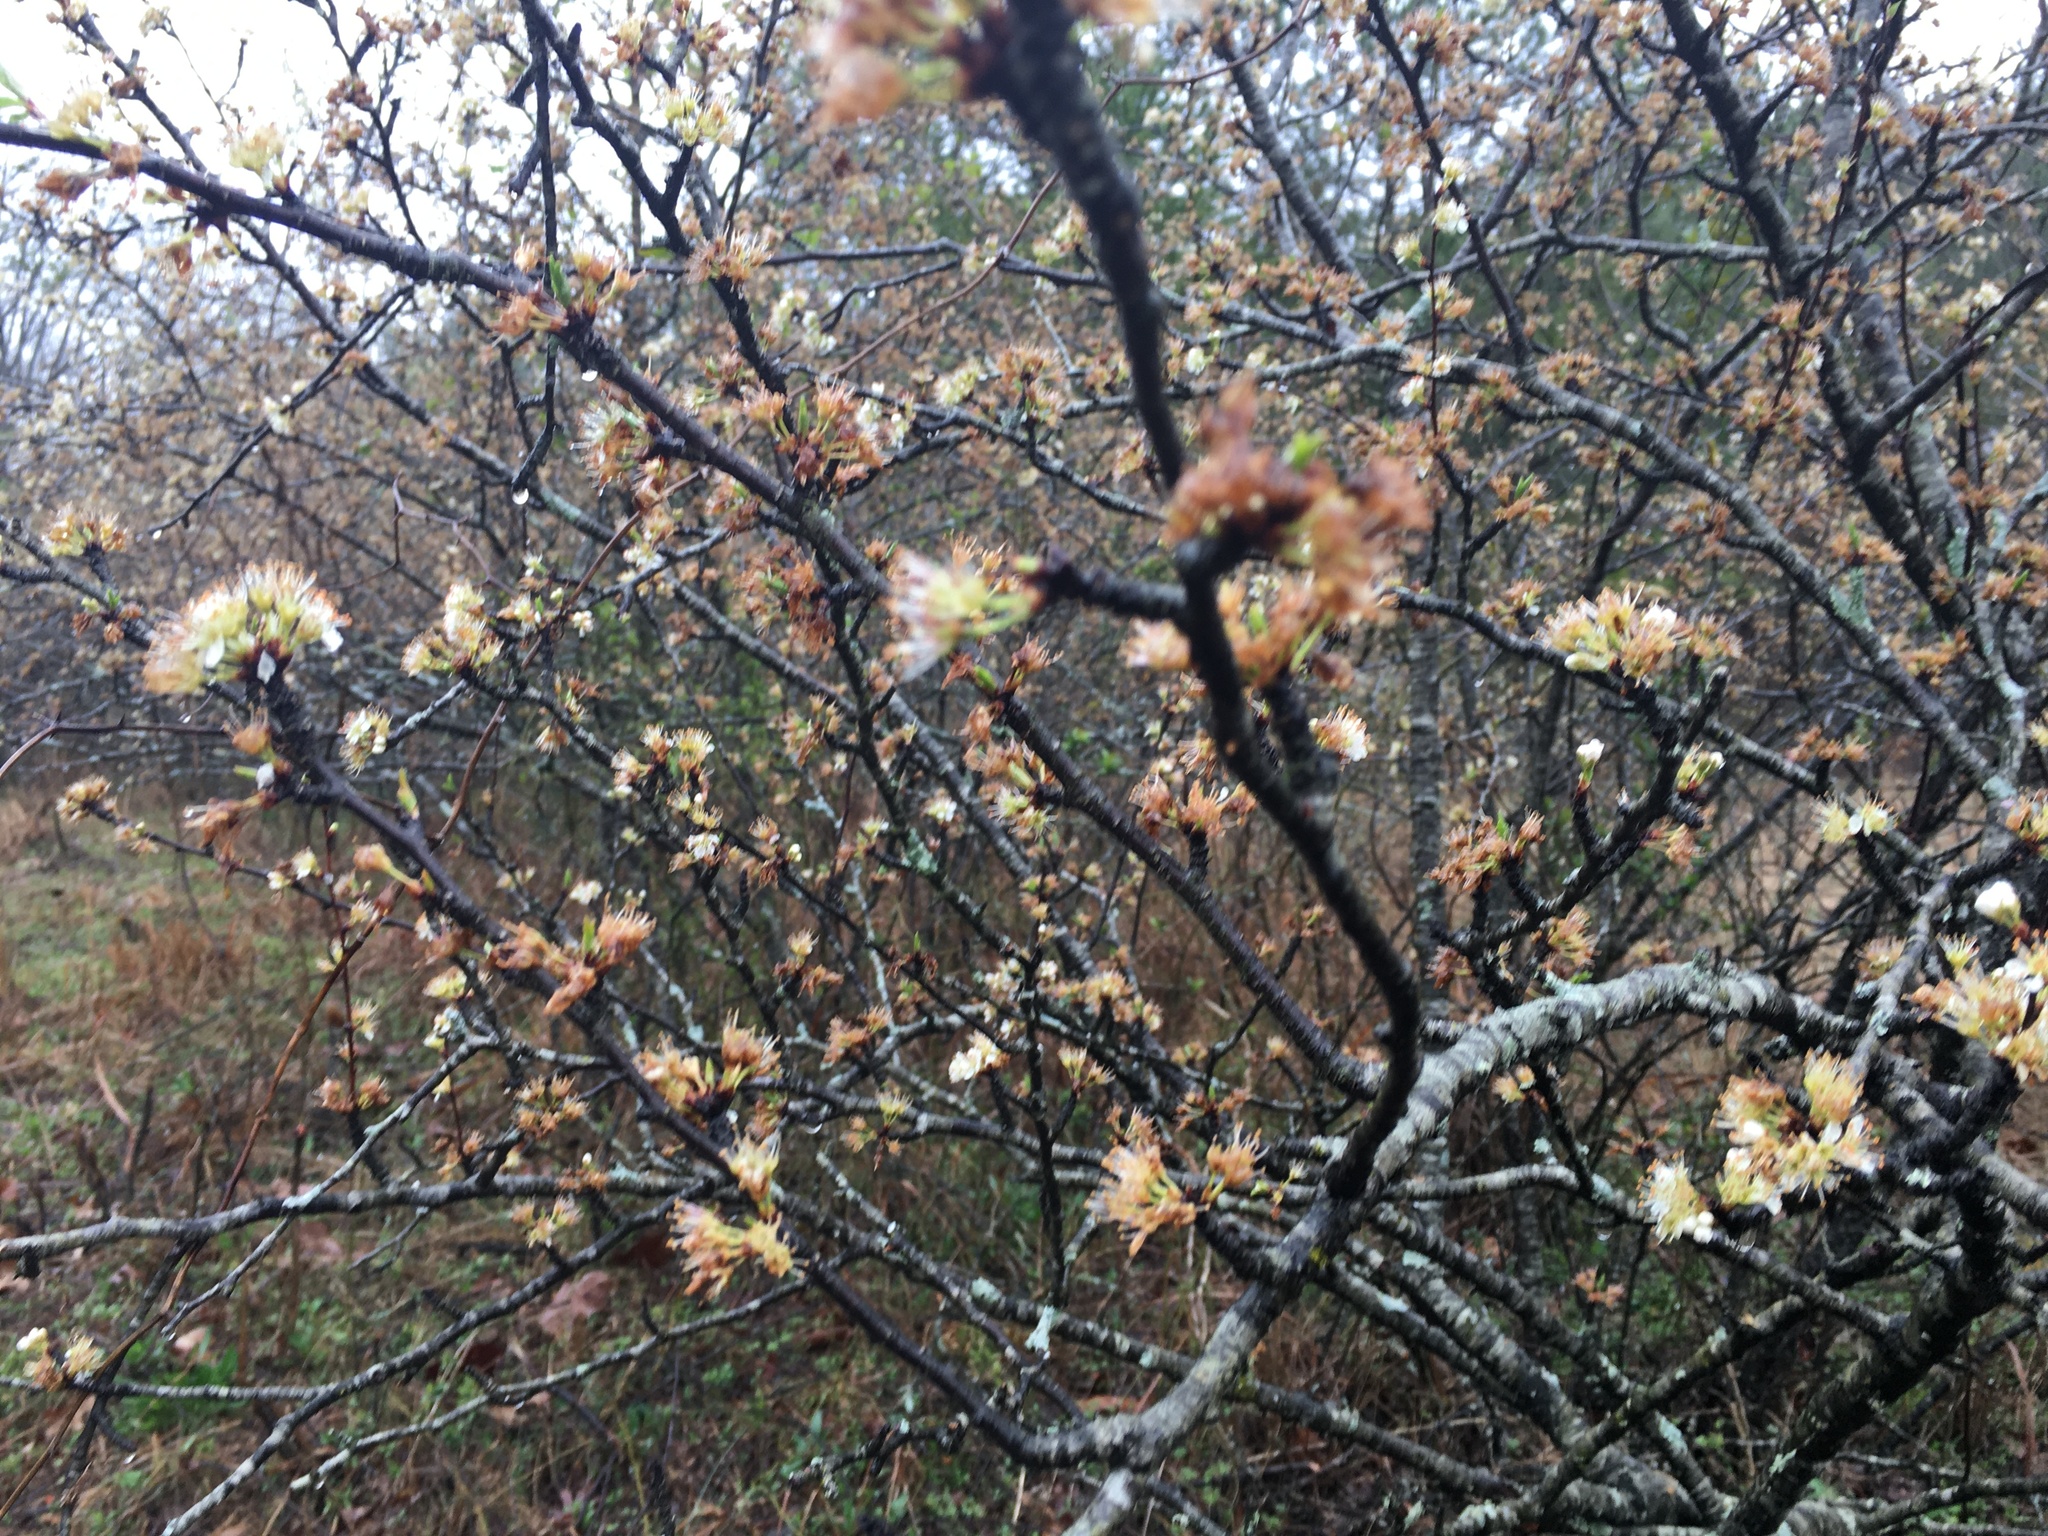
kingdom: Plantae
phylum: Tracheophyta
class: Magnoliopsida
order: Rosales
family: Rosaceae
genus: Prunus
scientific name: Prunus angustifolia
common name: Cherokee plum
